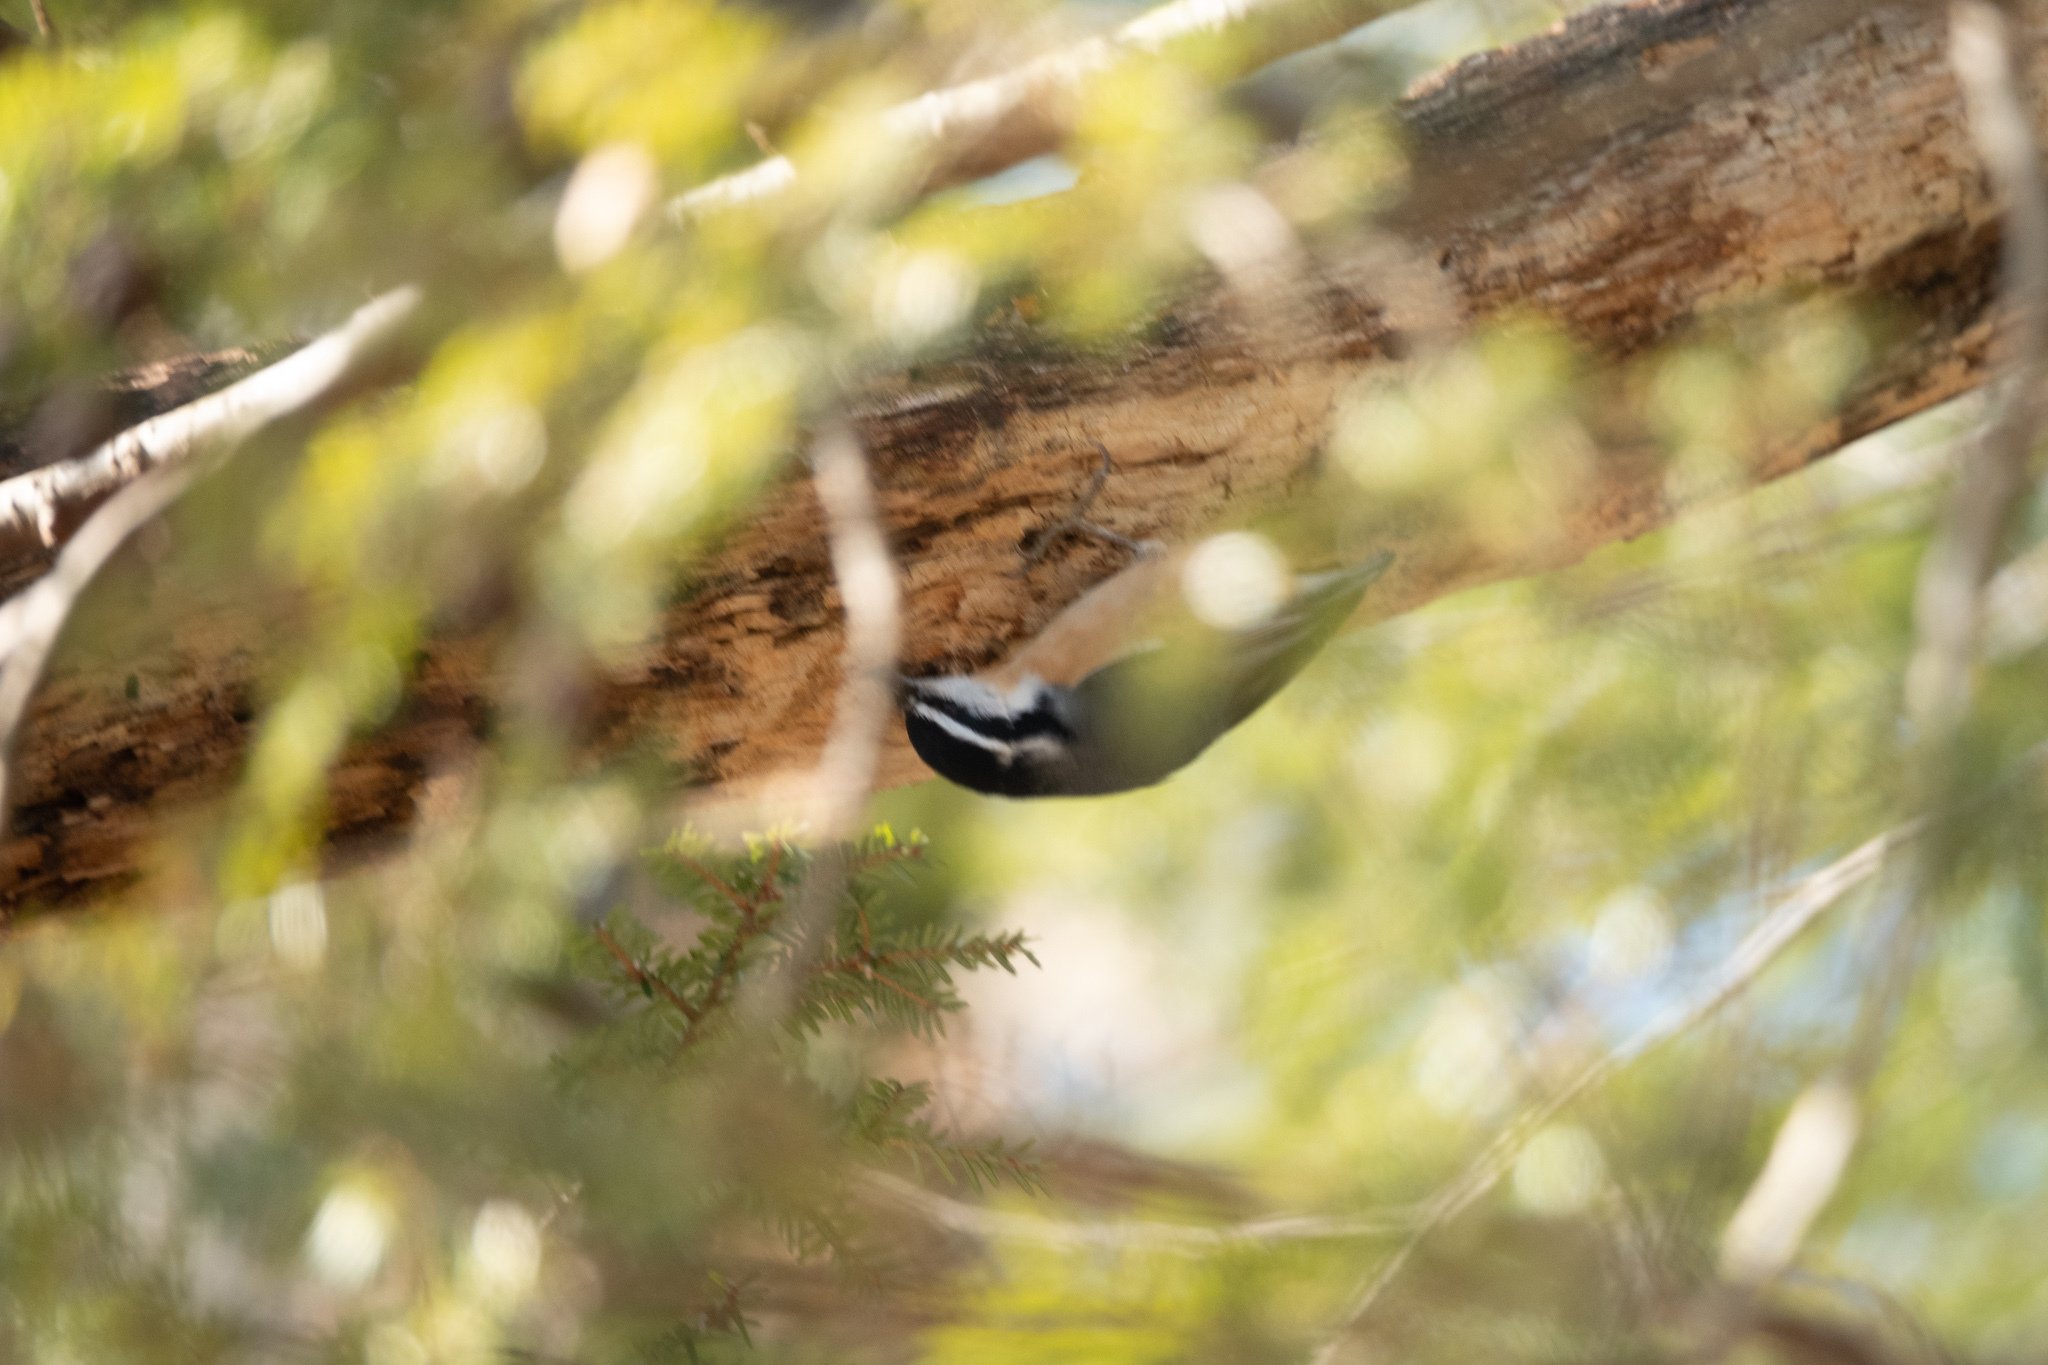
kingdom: Animalia
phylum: Chordata
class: Aves
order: Passeriformes
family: Sittidae
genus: Sitta
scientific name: Sitta canadensis
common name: Red-breasted nuthatch
